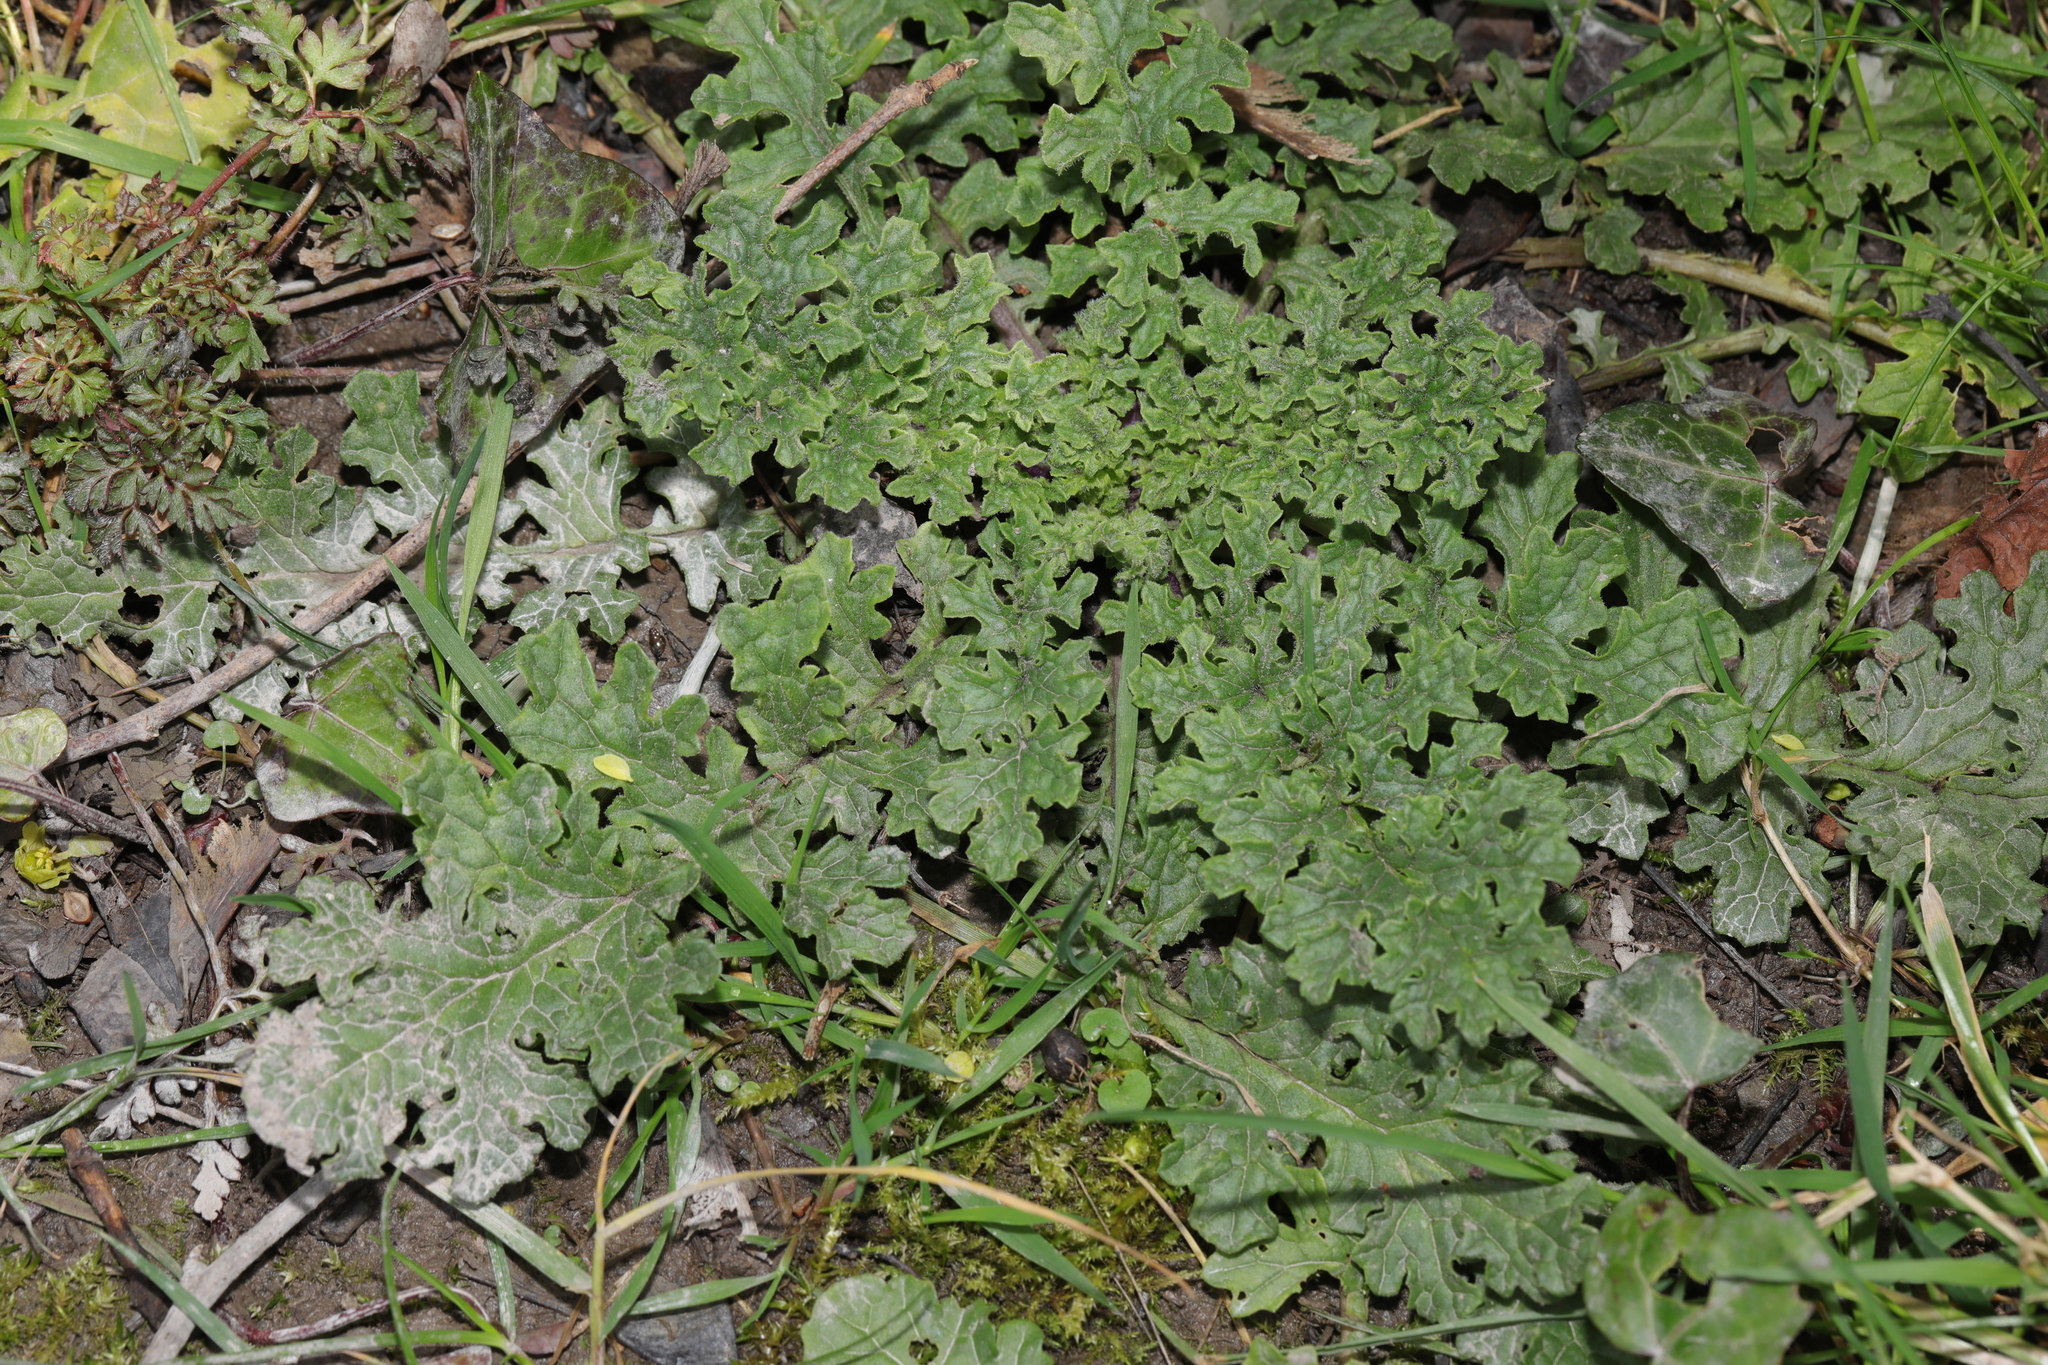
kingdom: Plantae
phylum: Tracheophyta
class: Magnoliopsida
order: Asterales
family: Asteraceae
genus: Jacobaea
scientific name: Jacobaea vulgaris
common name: Stinking willie
